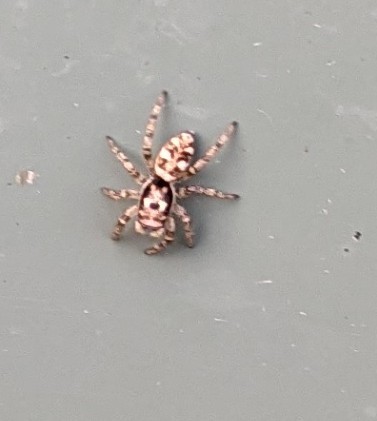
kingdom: Animalia
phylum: Arthropoda
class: Arachnida
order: Araneae
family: Salticidae
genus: Salticus
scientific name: Salticus scenicus
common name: Zebra jumper
